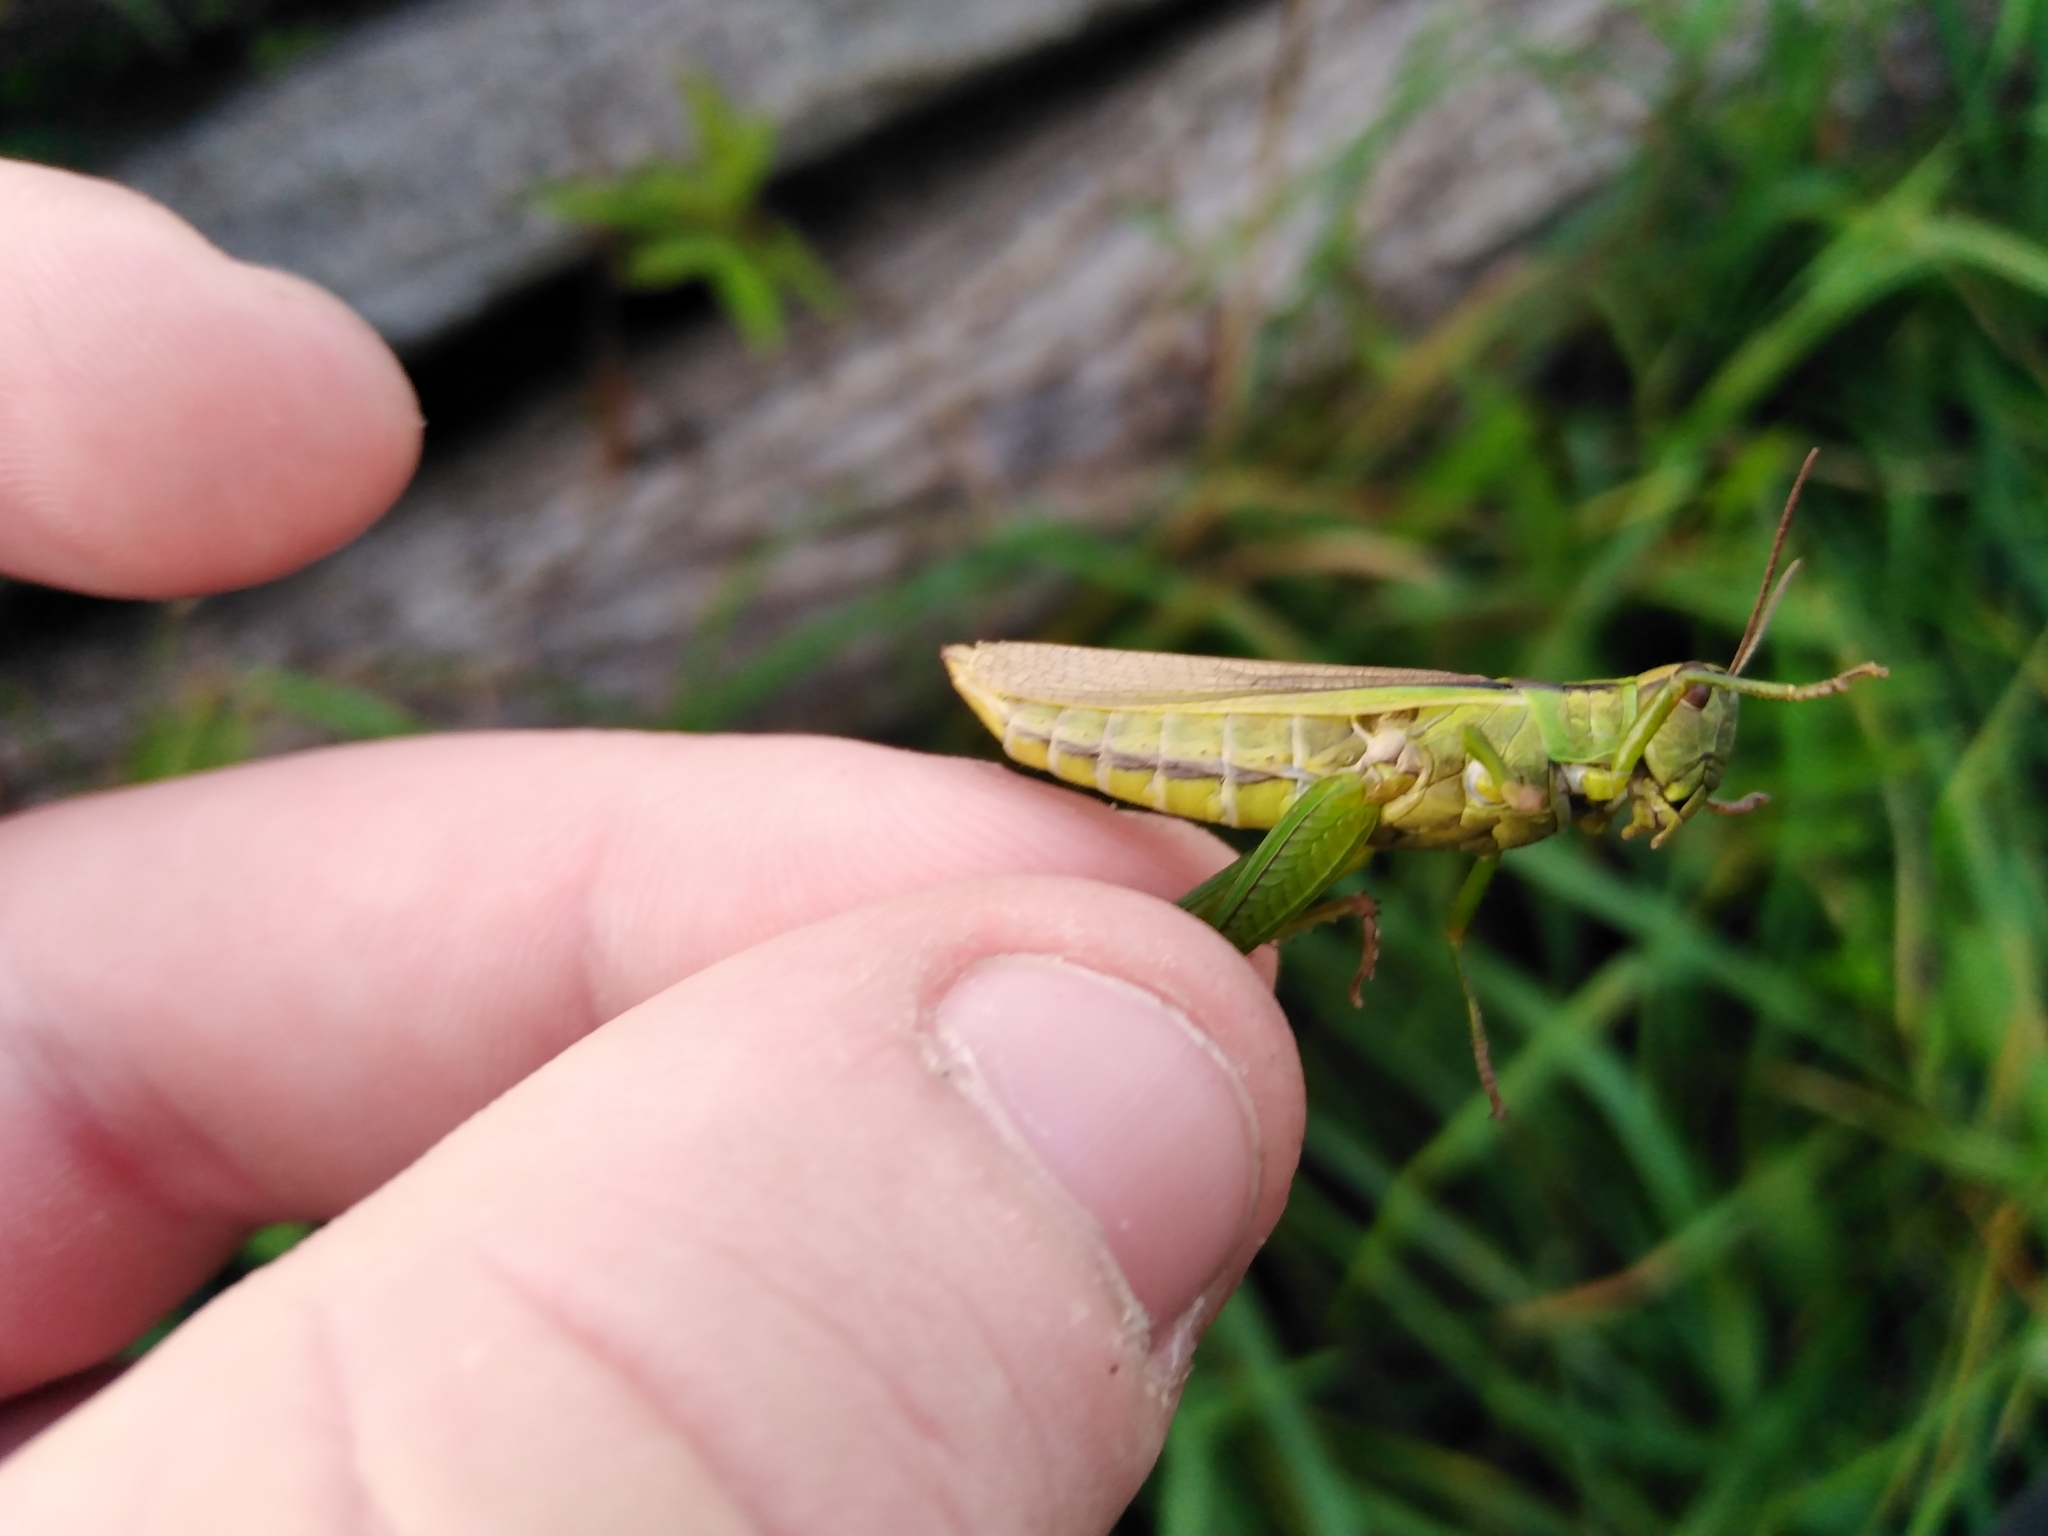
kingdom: Animalia
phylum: Arthropoda
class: Insecta
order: Orthoptera
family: Acrididae
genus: Mecostethus
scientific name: Mecostethus parapleurus
